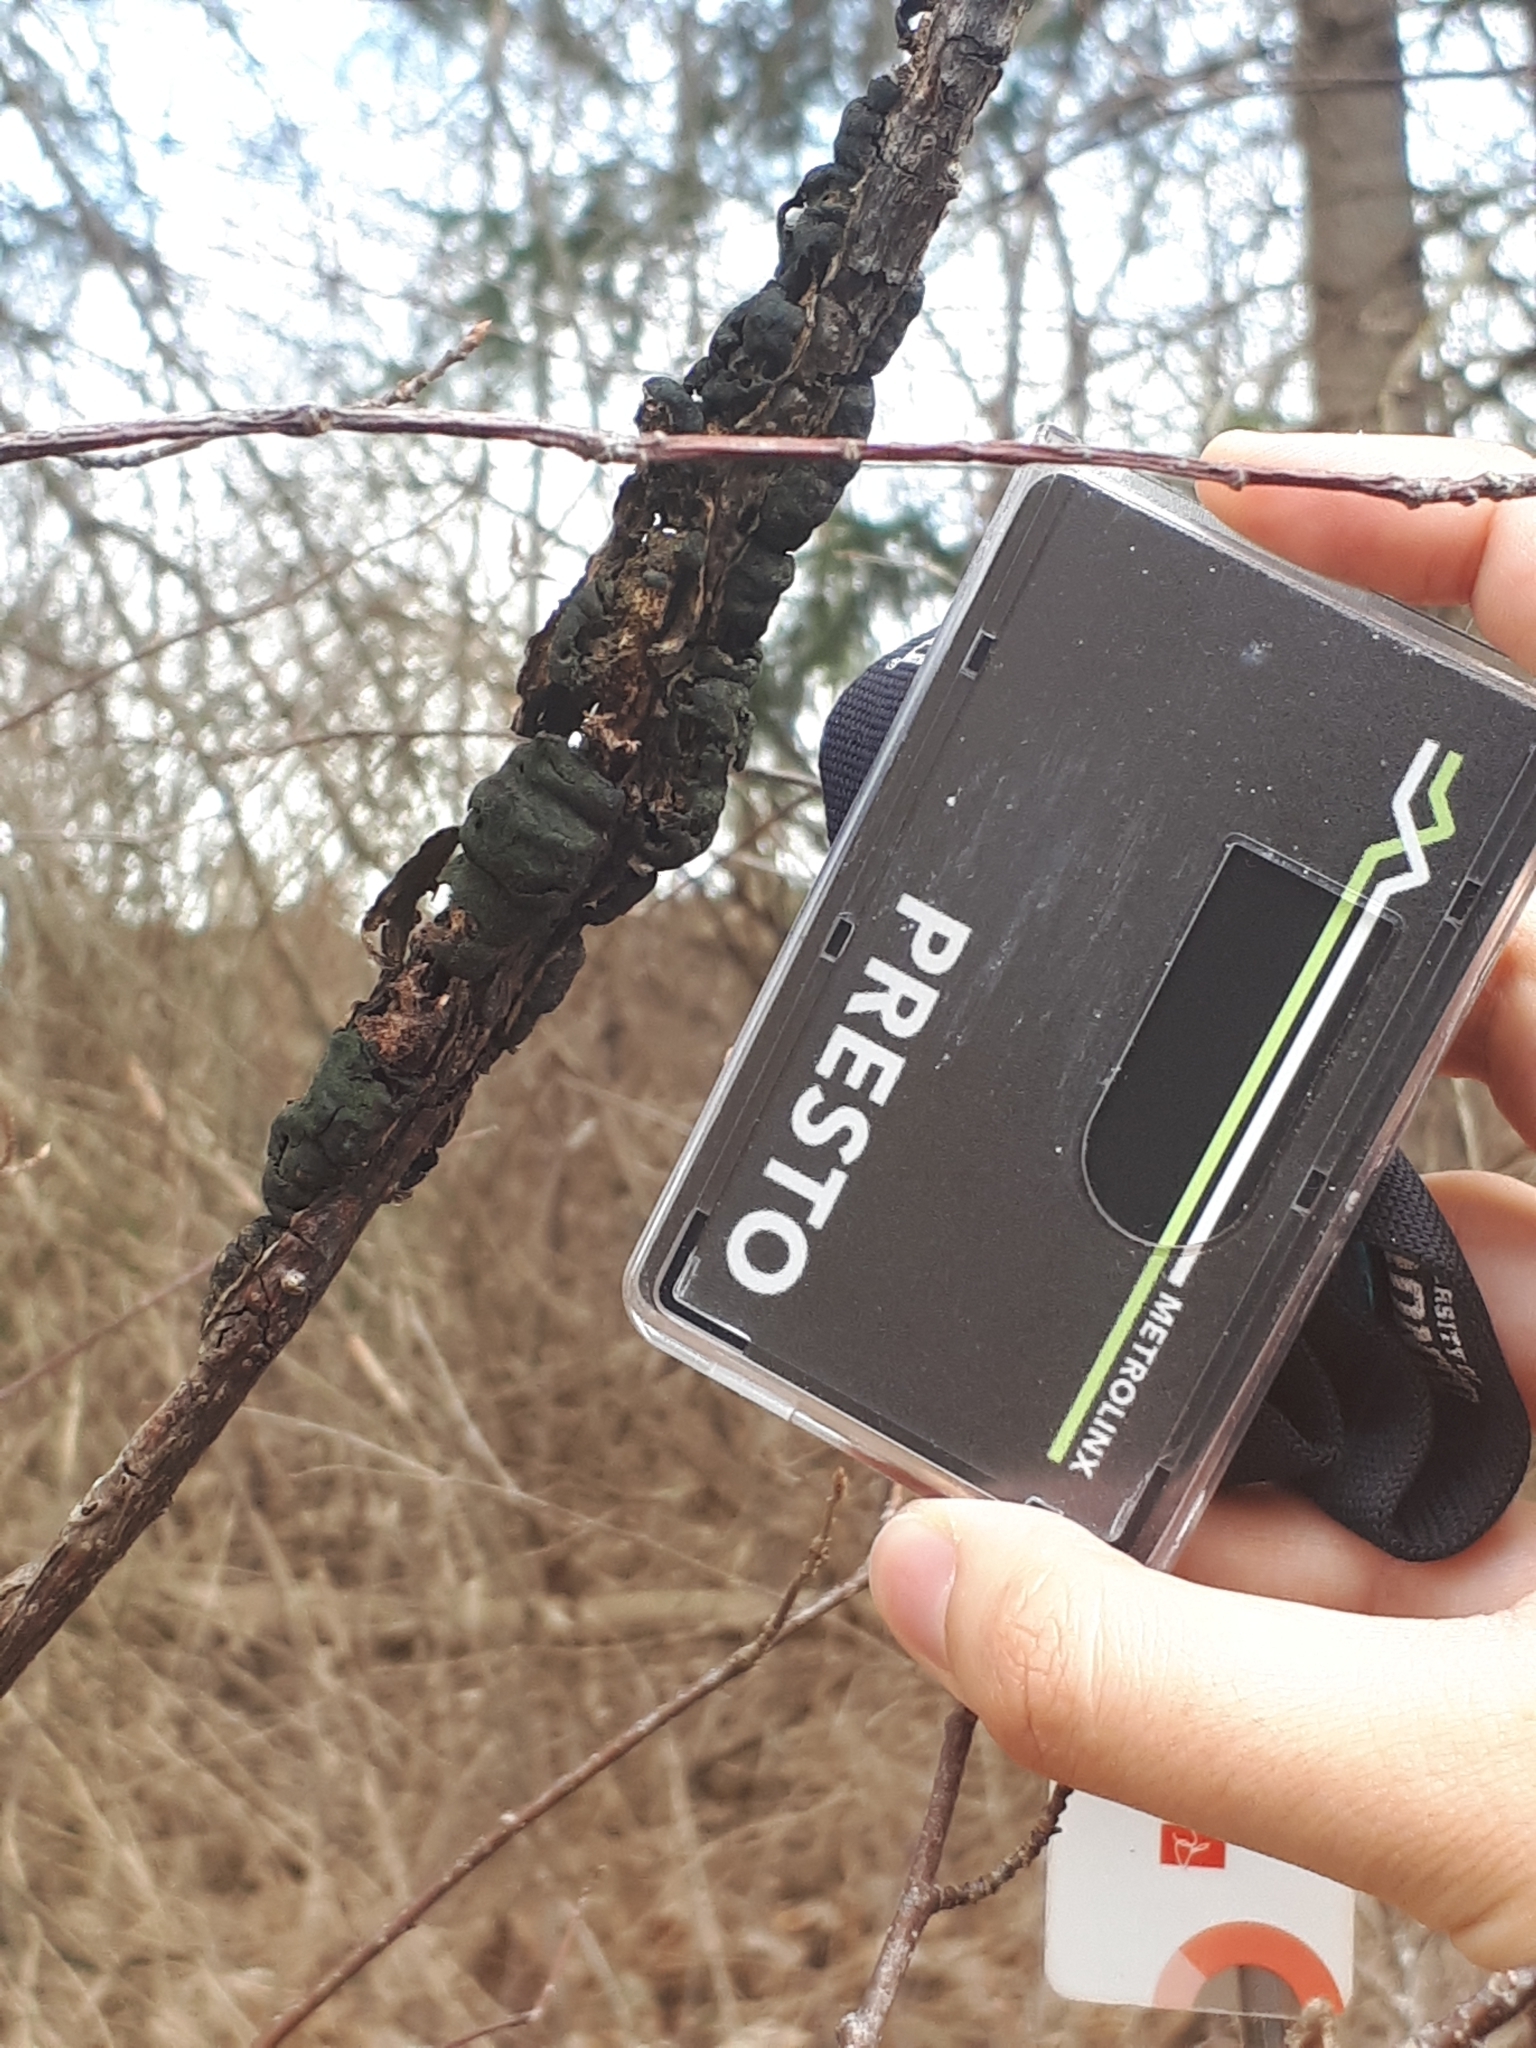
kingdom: Fungi
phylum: Ascomycota
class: Dothideomycetes
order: Venturiales
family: Venturiaceae
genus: Apiosporina
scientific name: Apiosporina morbosa
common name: Black knot
